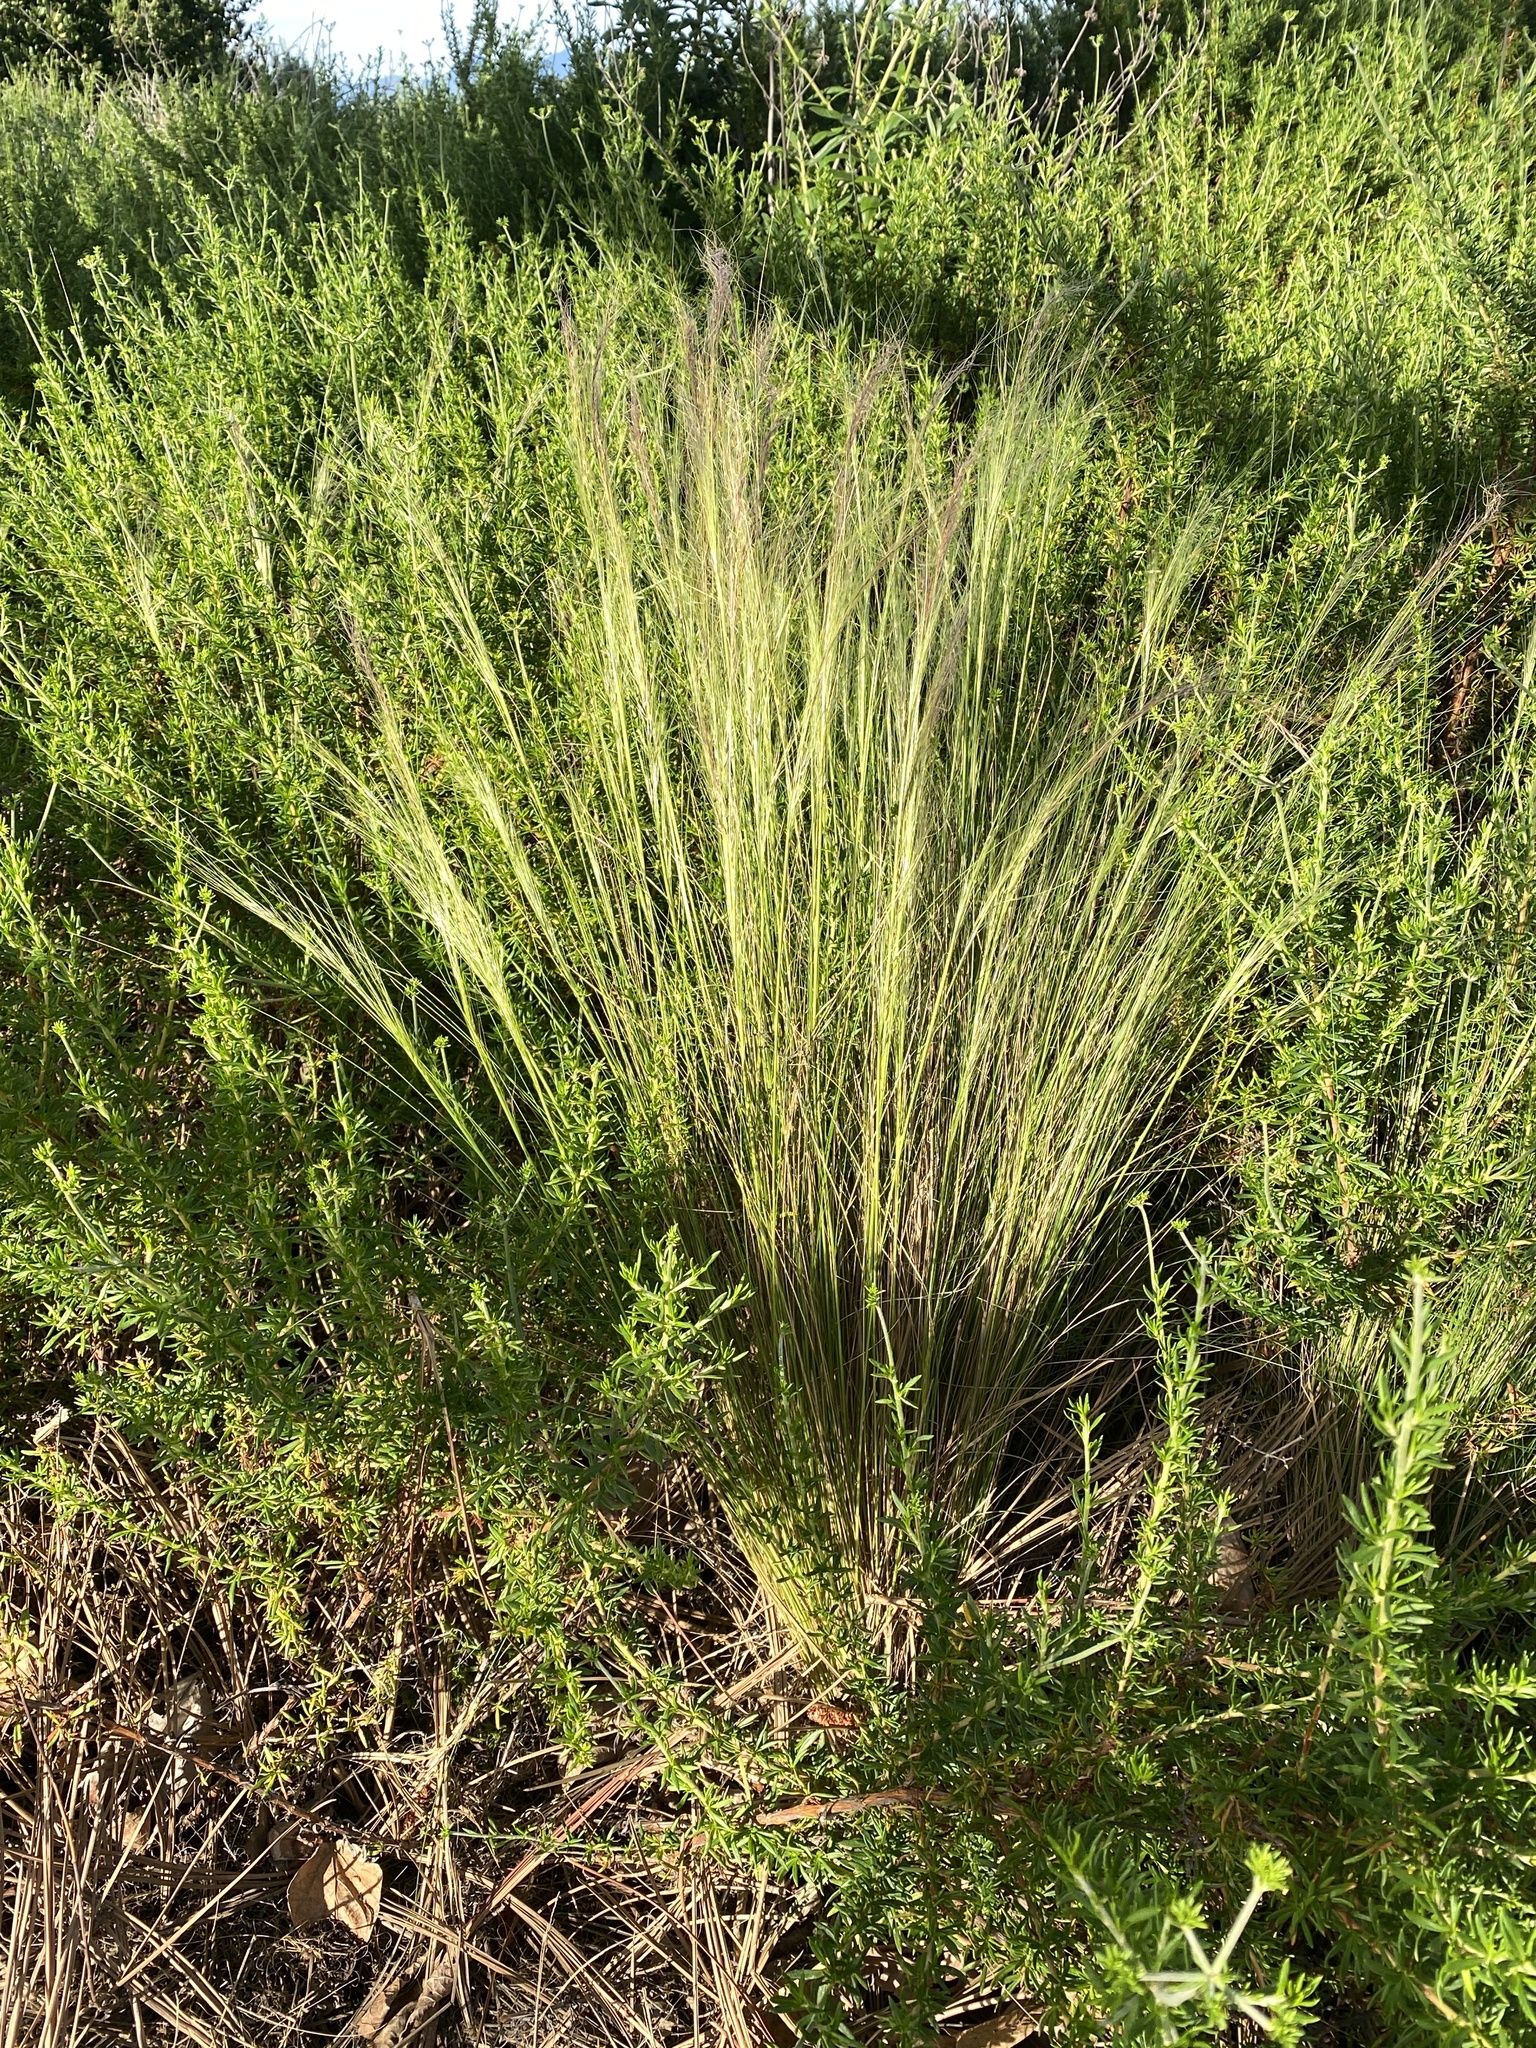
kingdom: Plantae
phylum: Tracheophyta
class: Liliopsida
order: Poales
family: Poaceae
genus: Nassella
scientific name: Nassella tenuissima
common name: Argentine needlegrass
